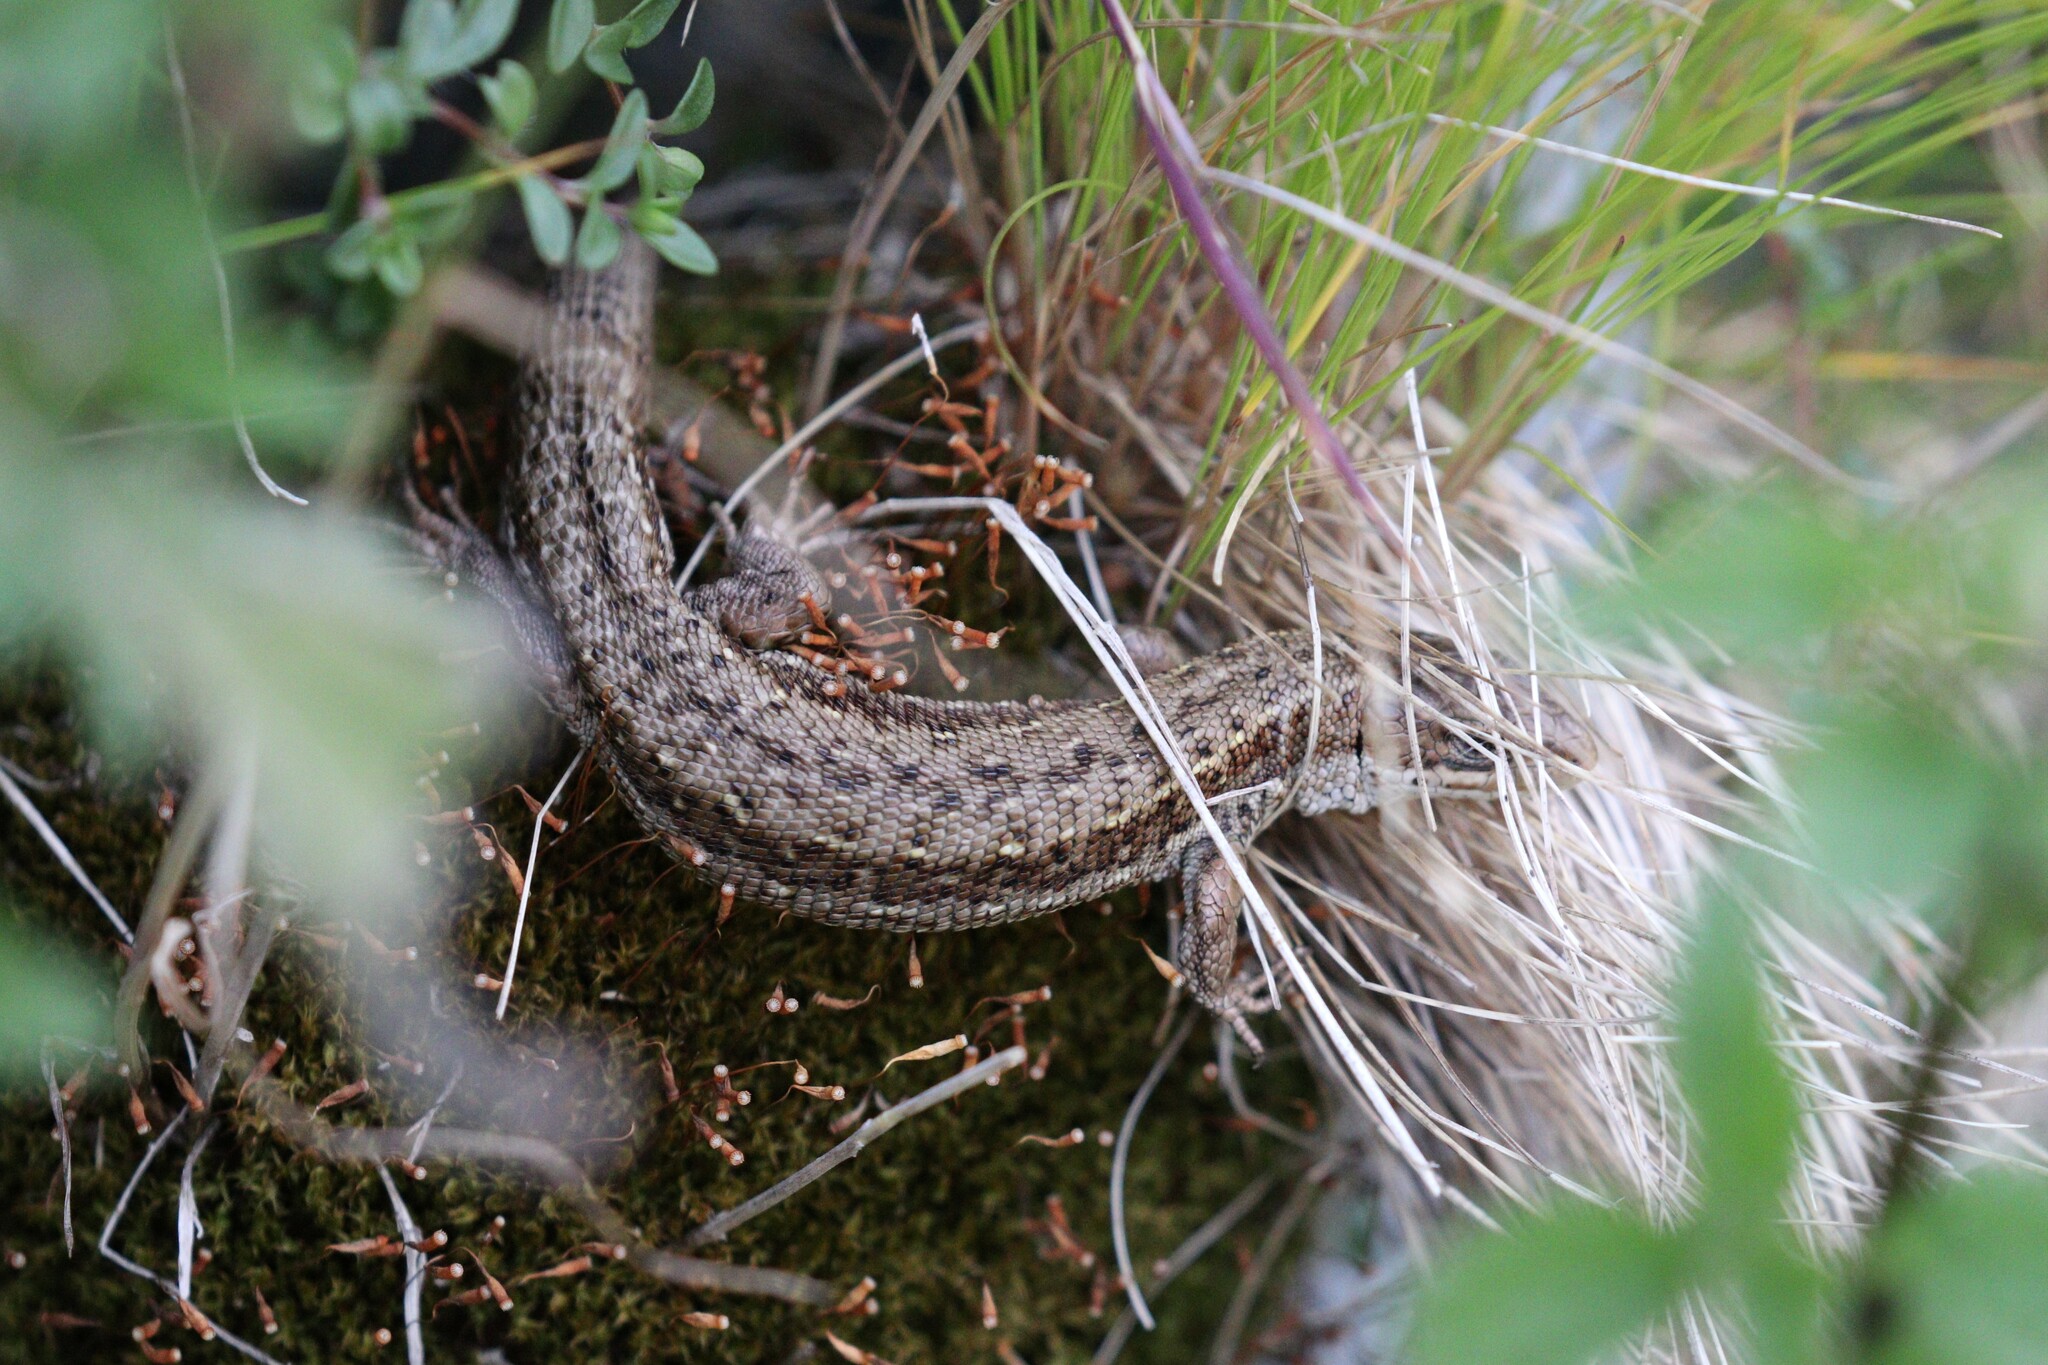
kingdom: Animalia
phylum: Chordata
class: Squamata
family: Lacertidae
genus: Zootoca
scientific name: Zootoca vivipara
